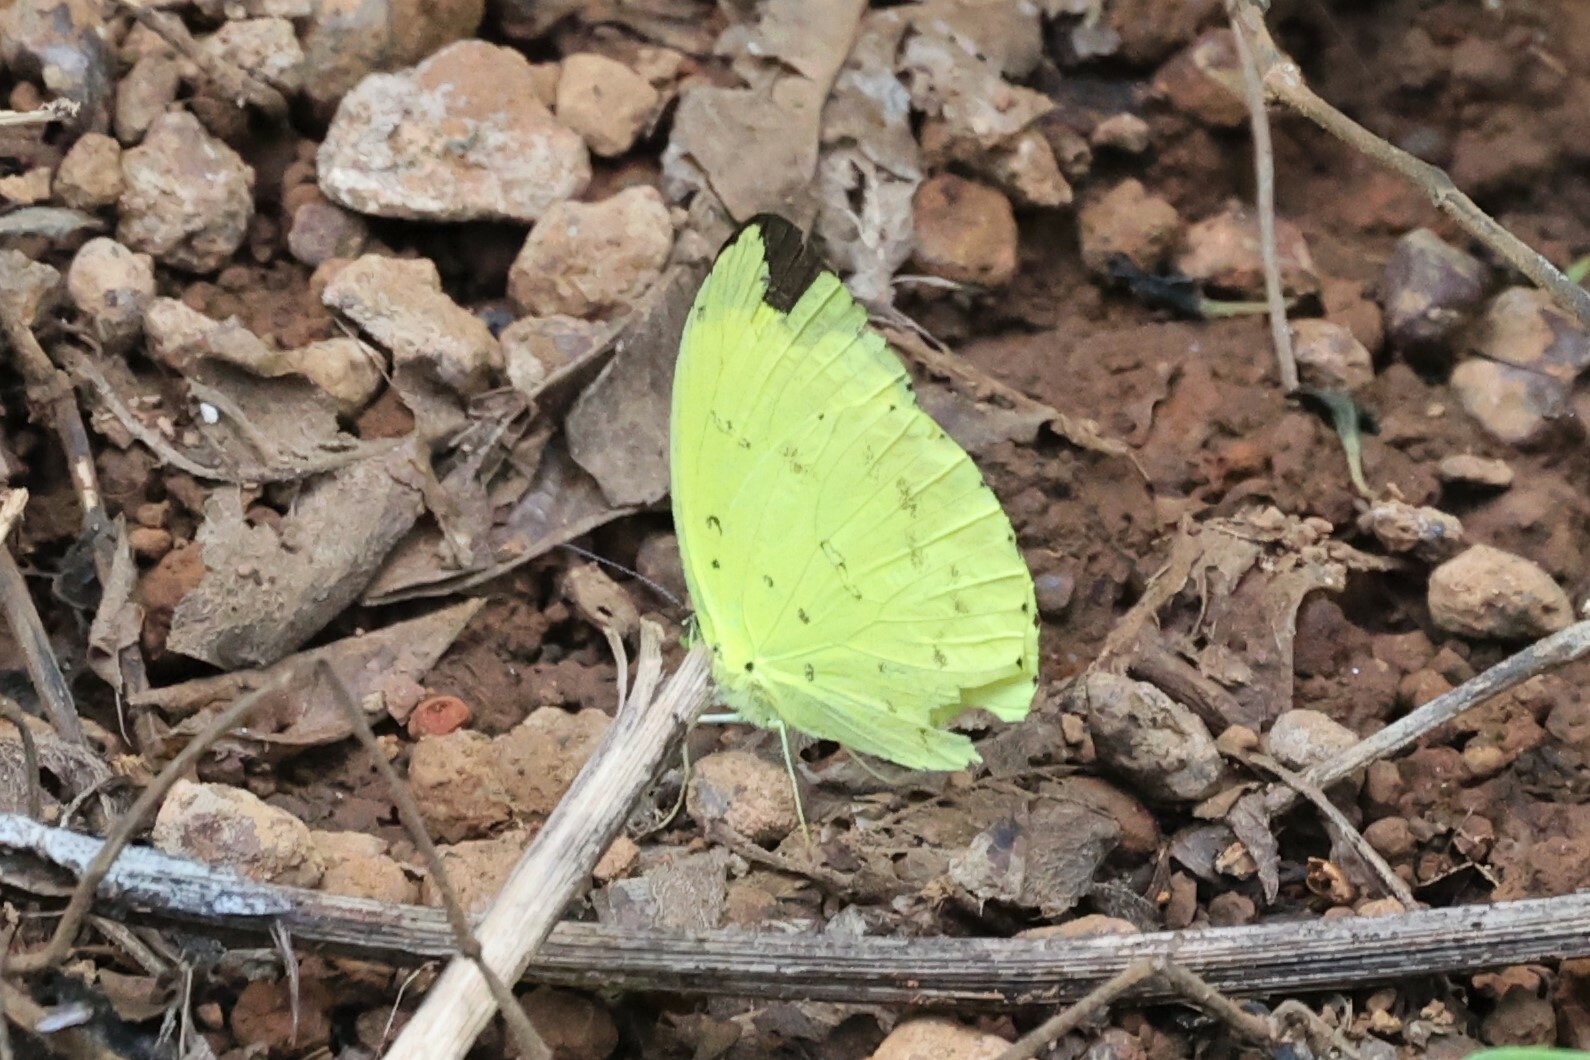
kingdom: Animalia
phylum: Arthropoda
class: Insecta
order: Lepidoptera
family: Pieridae
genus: Eurema
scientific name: Eurema senegalensis
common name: Forest grass yellow
